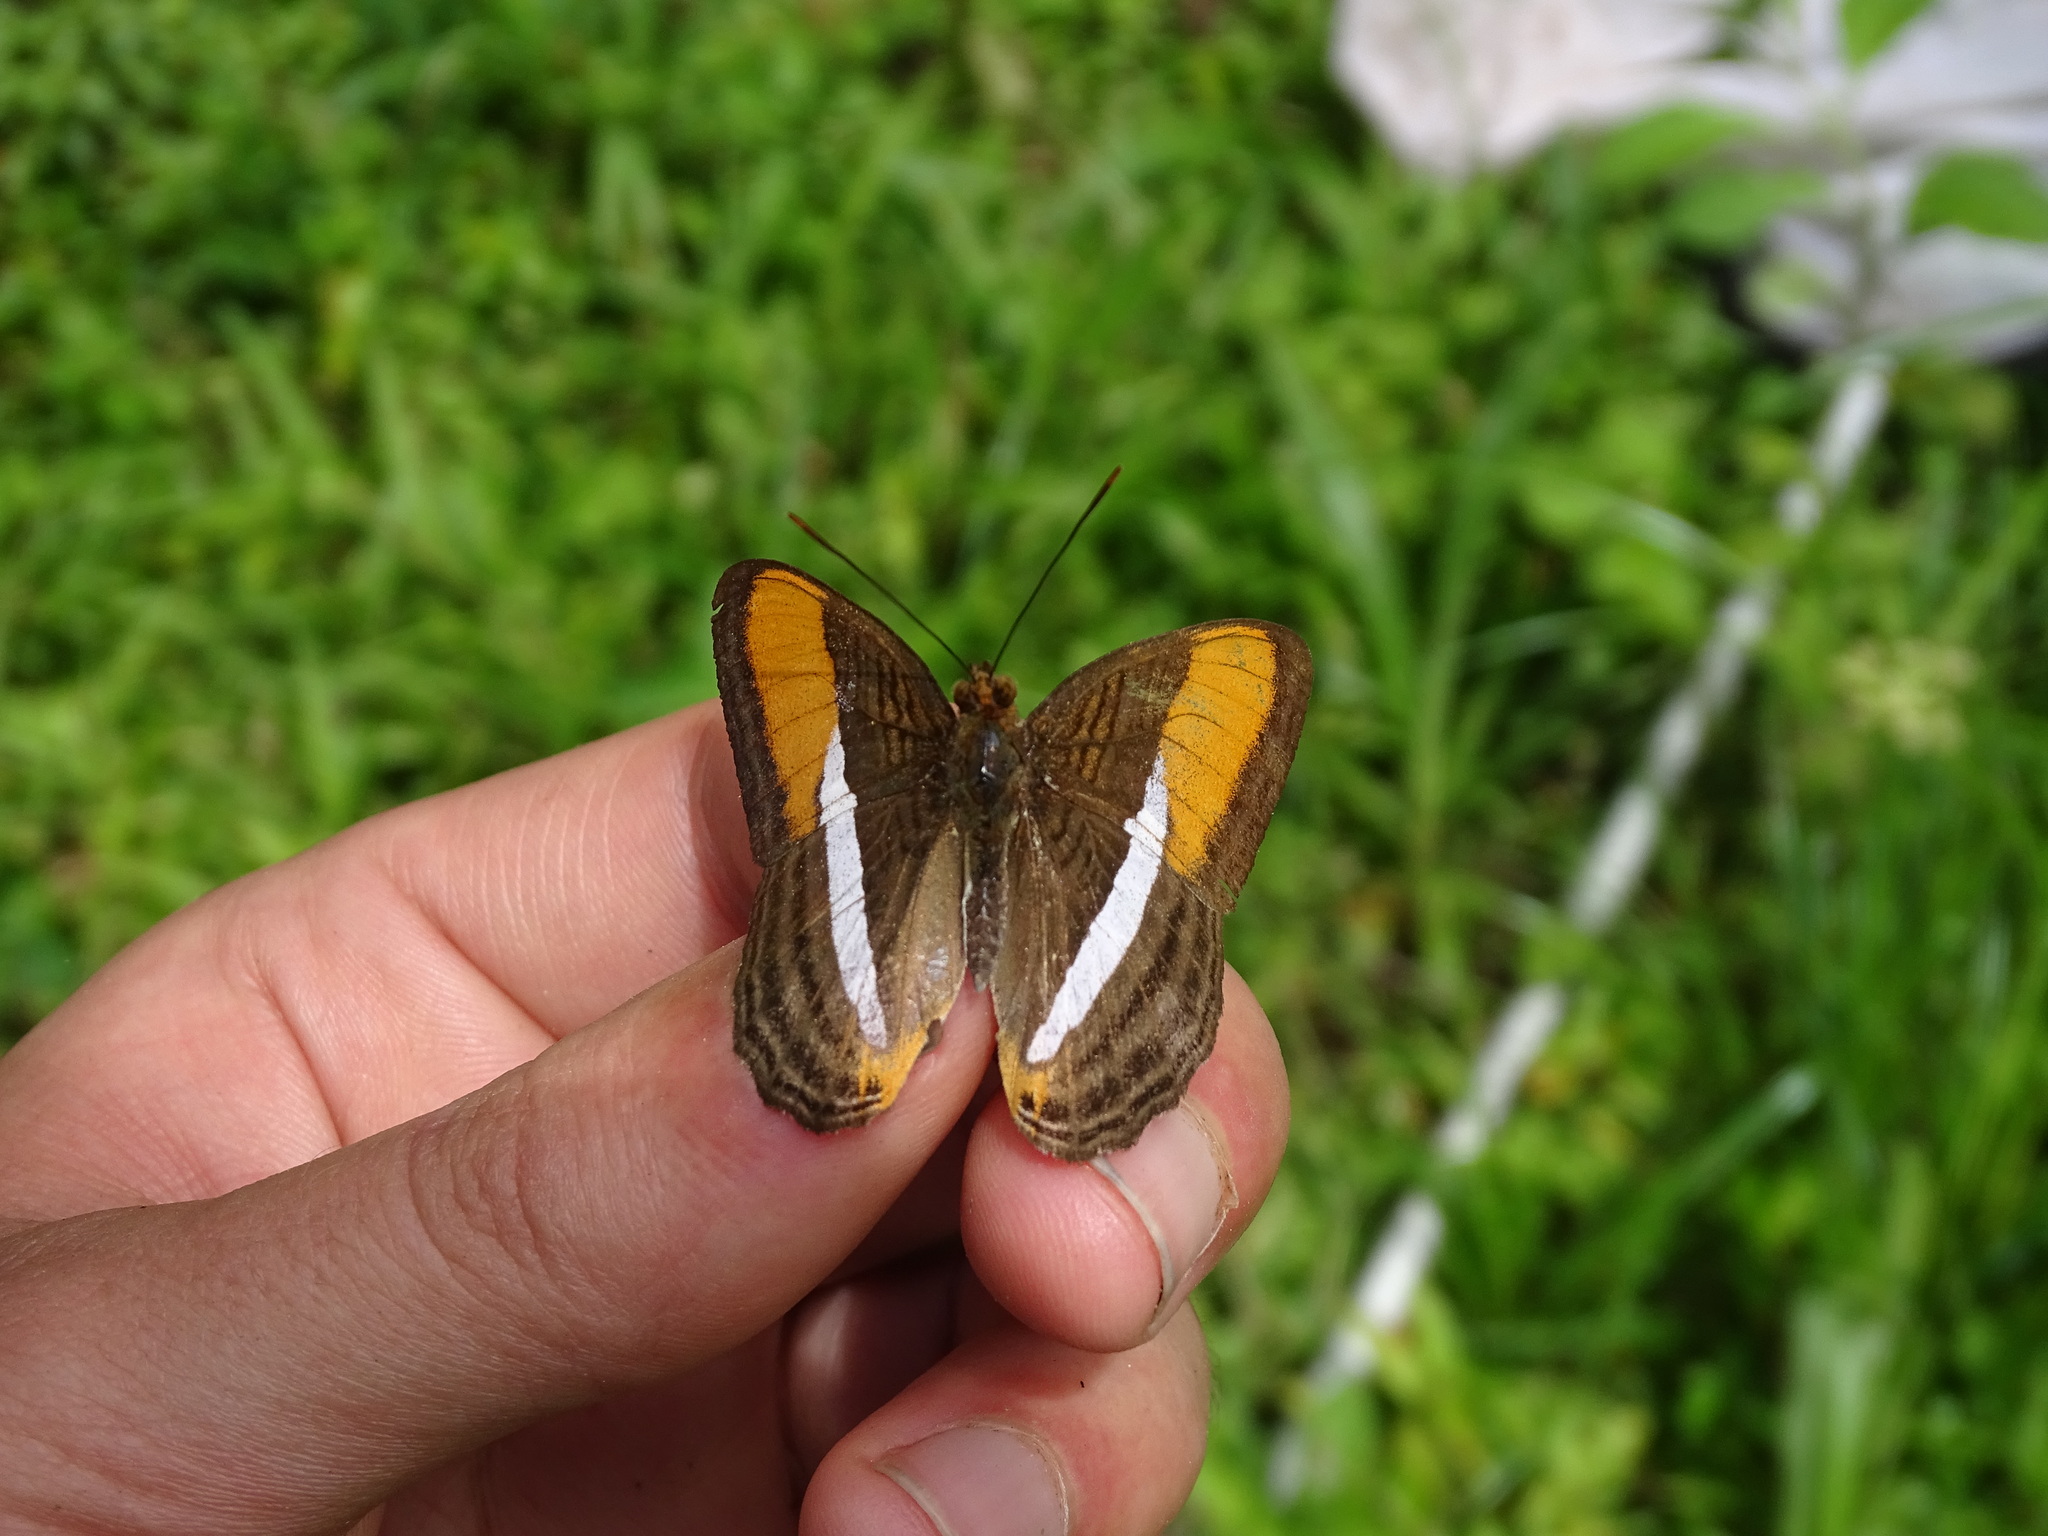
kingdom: Animalia
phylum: Arthropoda
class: Insecta
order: Lepidoptera
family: Nymphalidae
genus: Limenitis
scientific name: Limenitis cytherea
